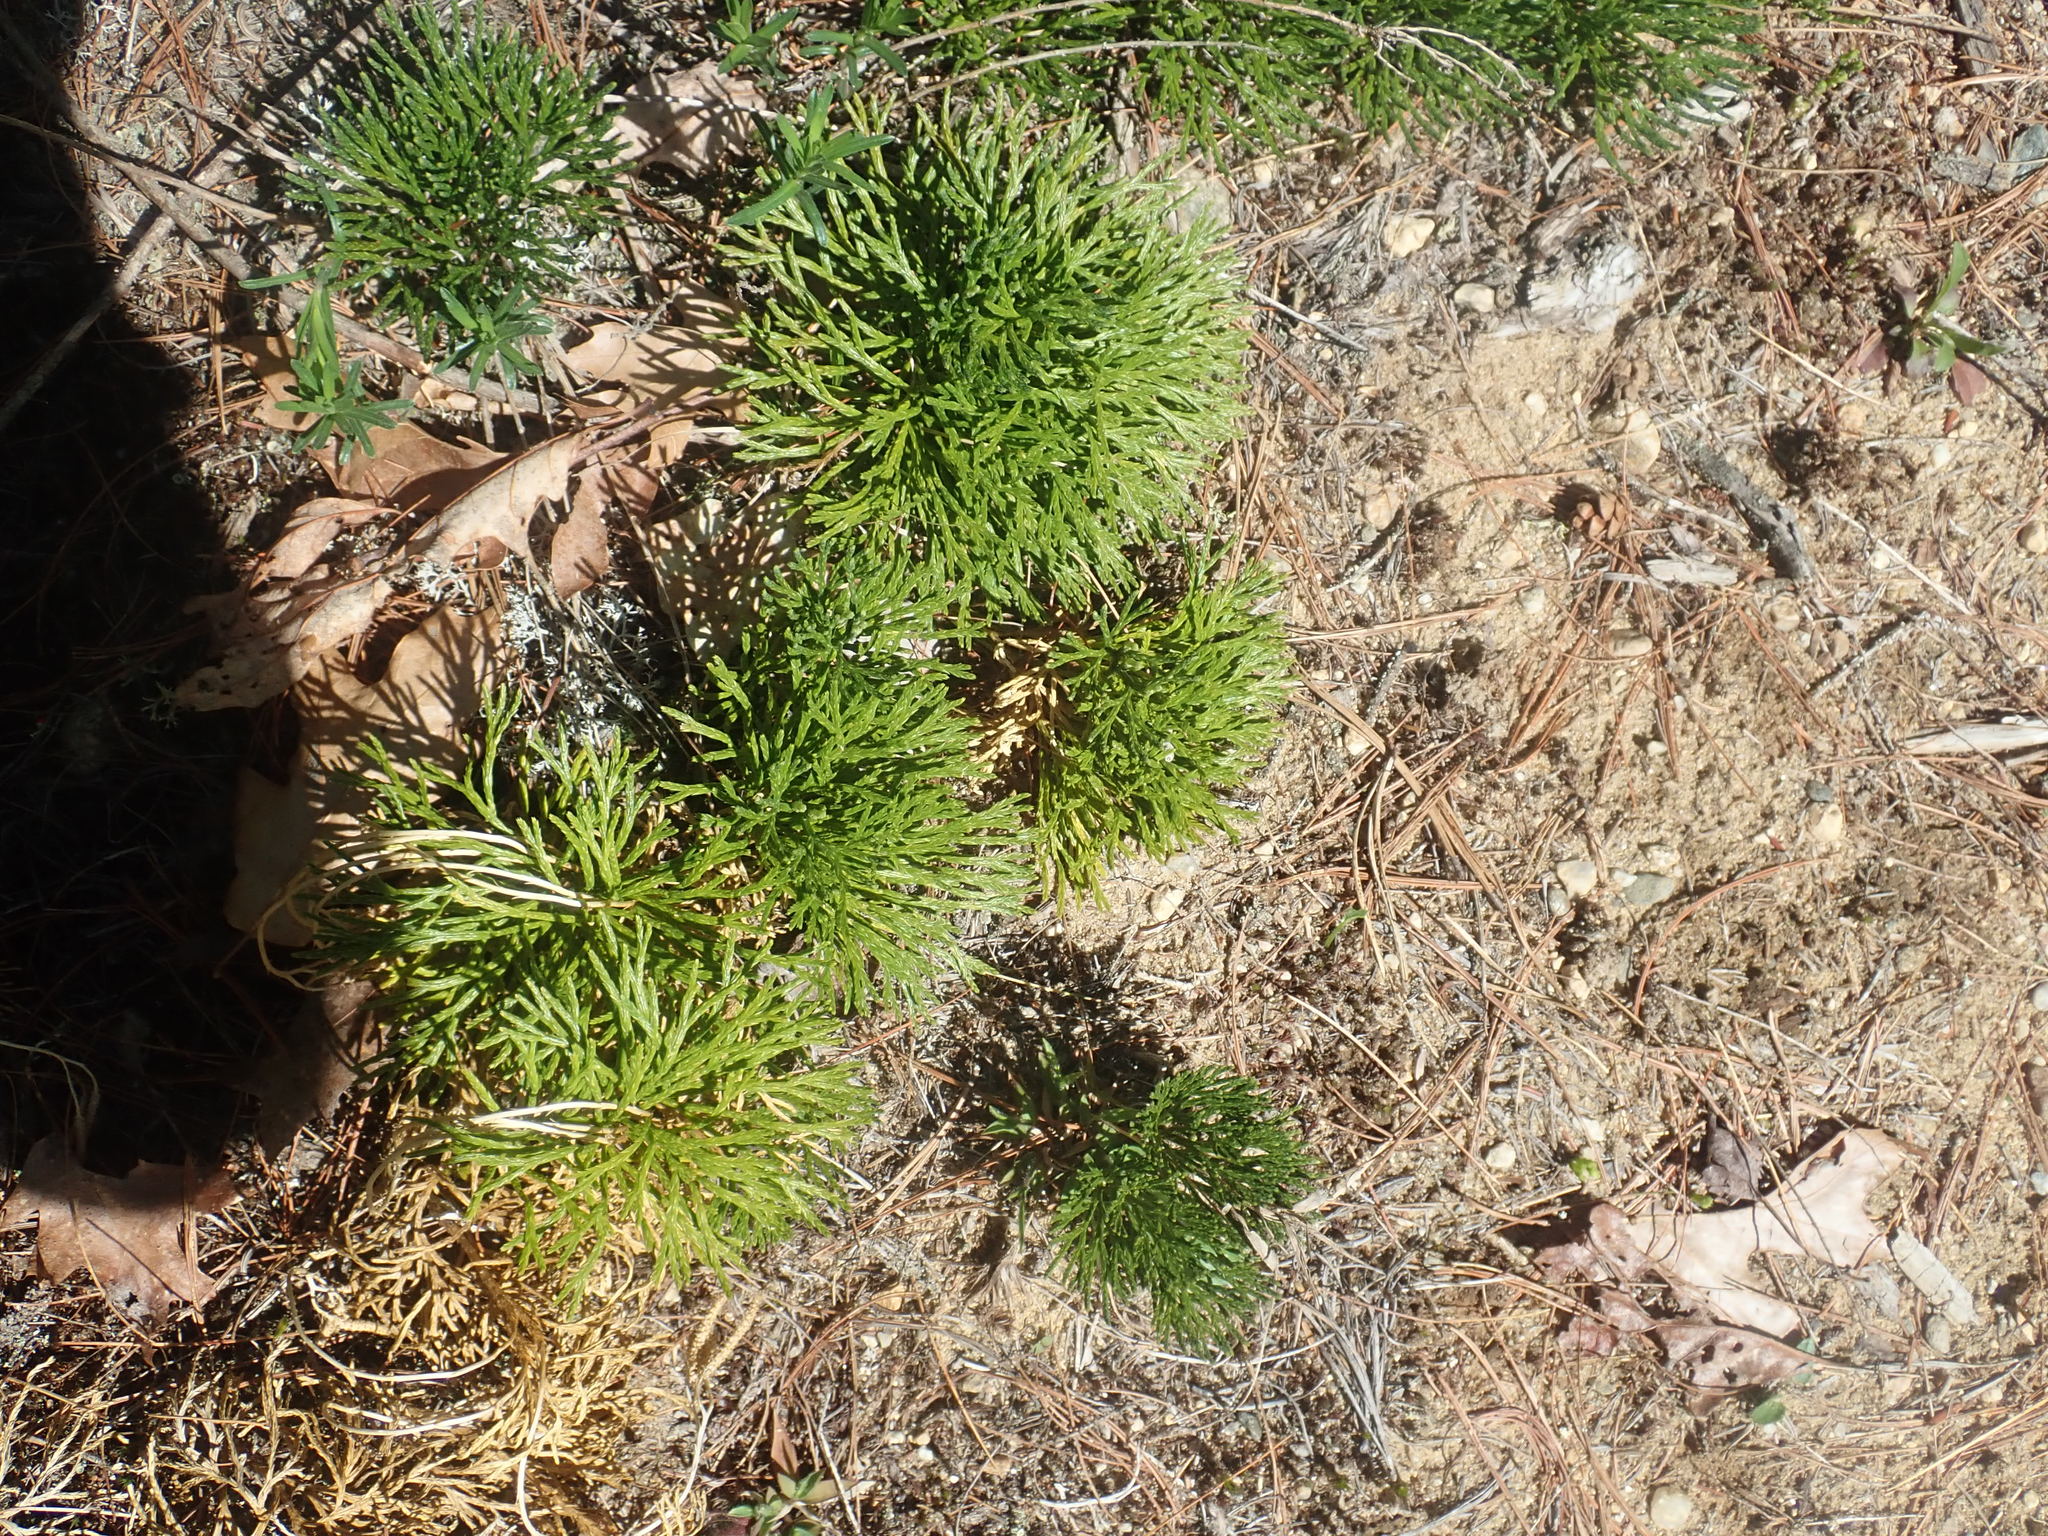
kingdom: Plantae
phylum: Tracheophyta
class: Lycopodiopsida
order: Lycopodiales
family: Lycopodiaceae
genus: Diphasiastrum
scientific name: Diphasiastrum tristachyum
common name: Blue ground-cedar
